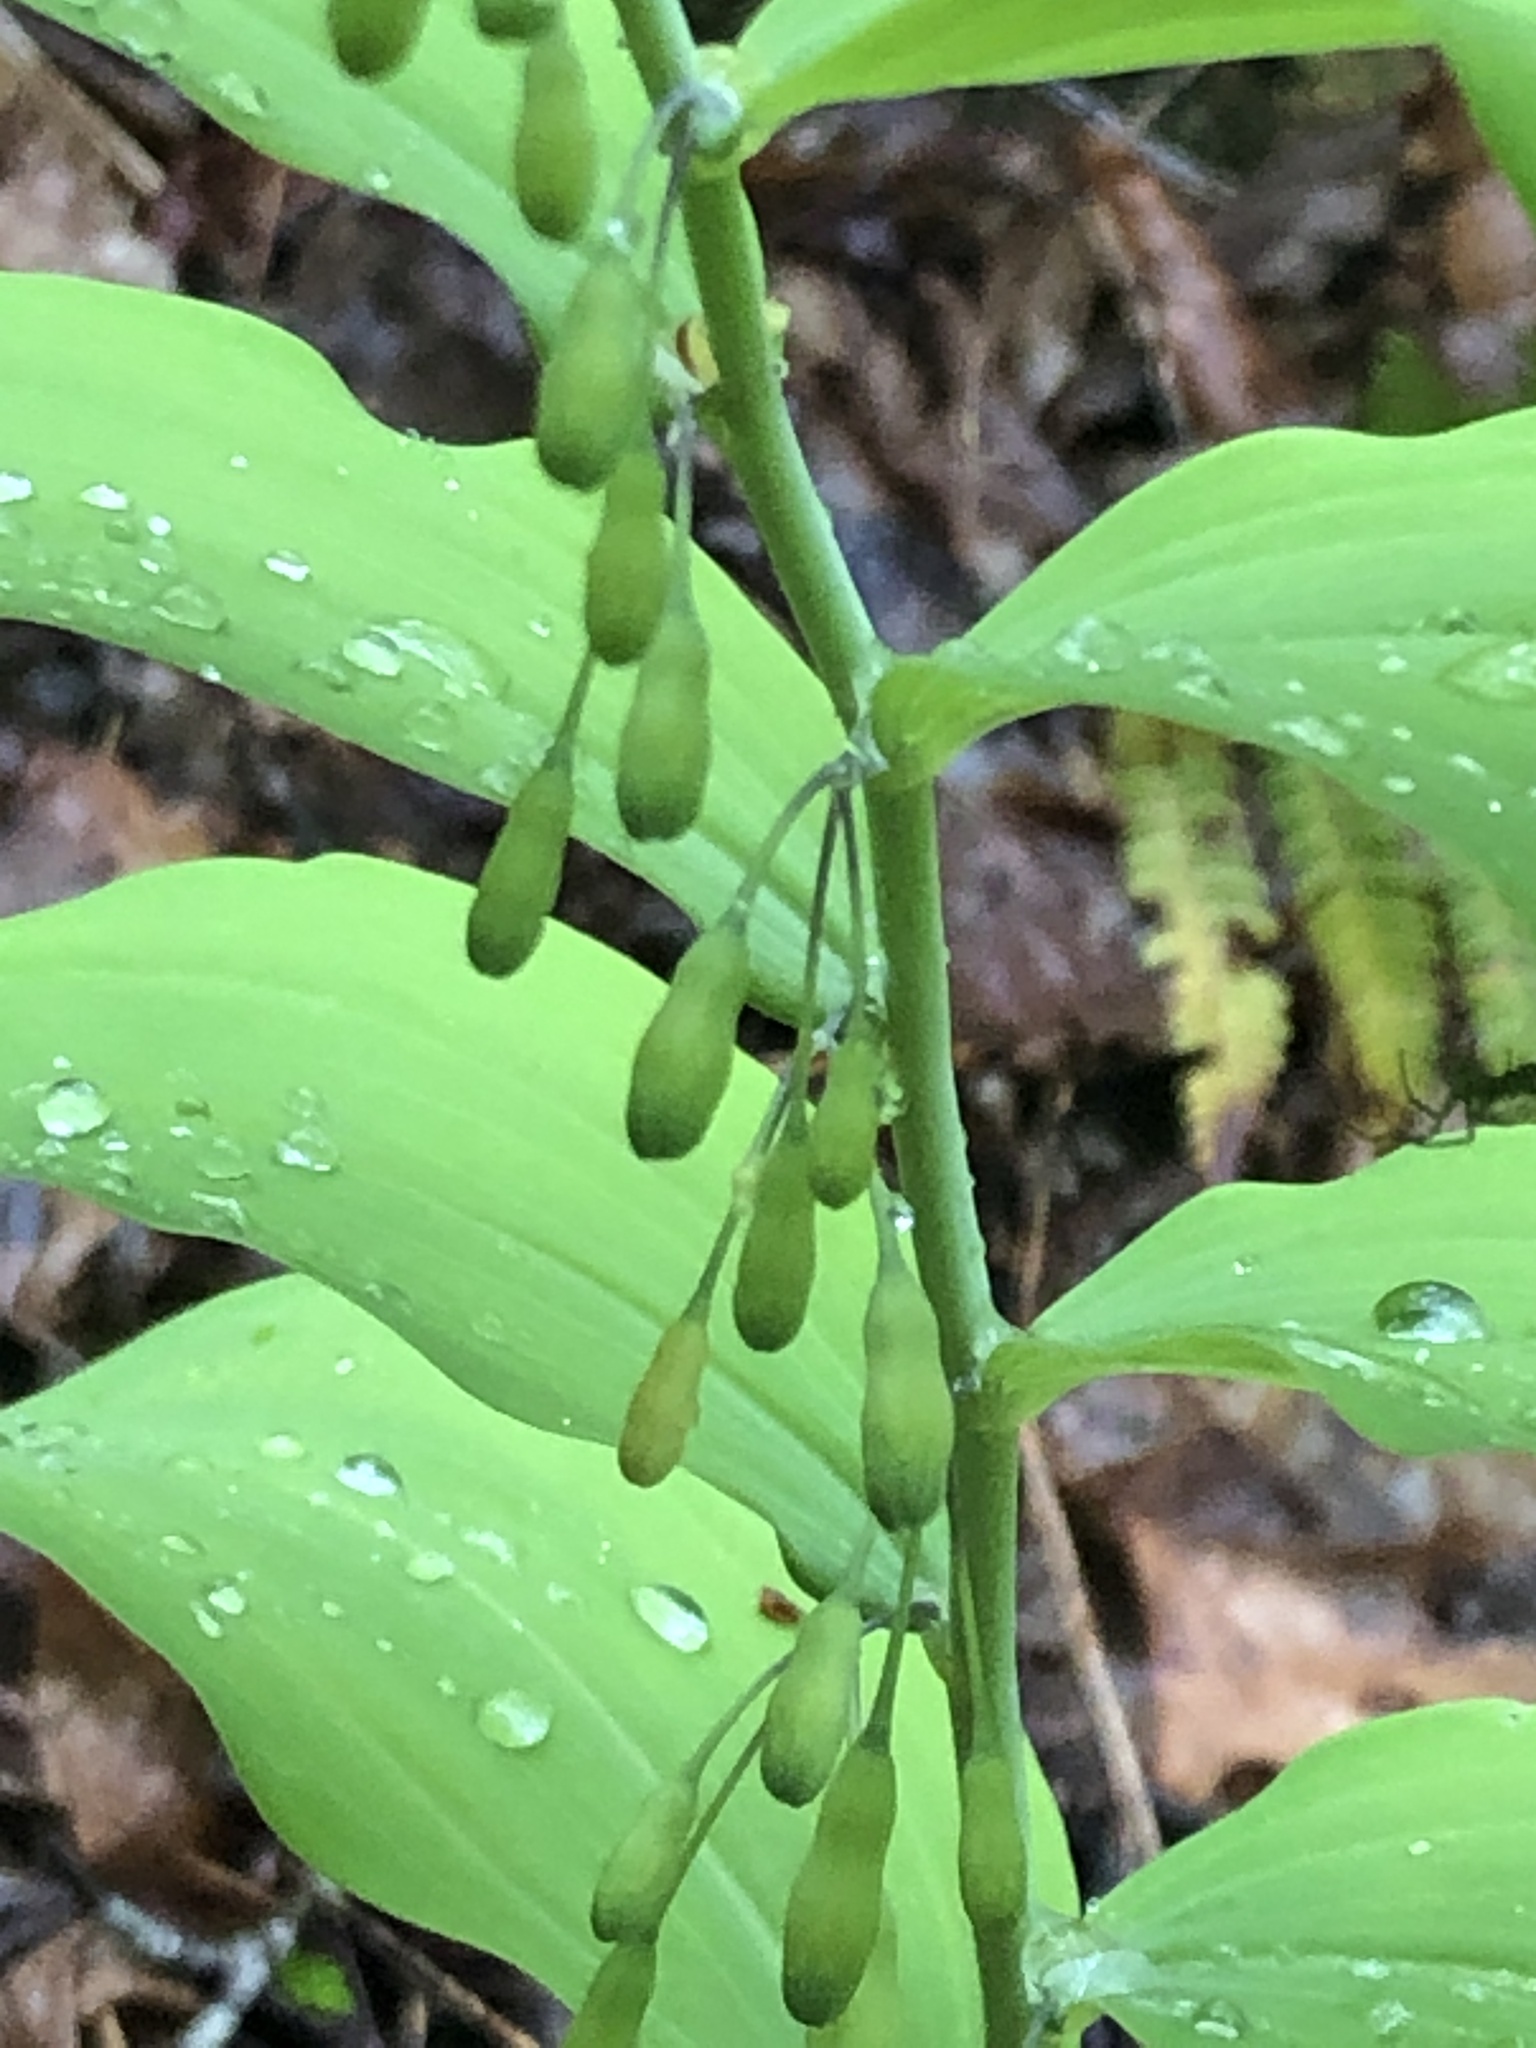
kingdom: Plantae
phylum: Tracheophyta
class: Liliopsida
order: Asparagales
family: Asparagaceae
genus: Polygonatum
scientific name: Polygonatum biflorum
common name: American solomon's-seal
